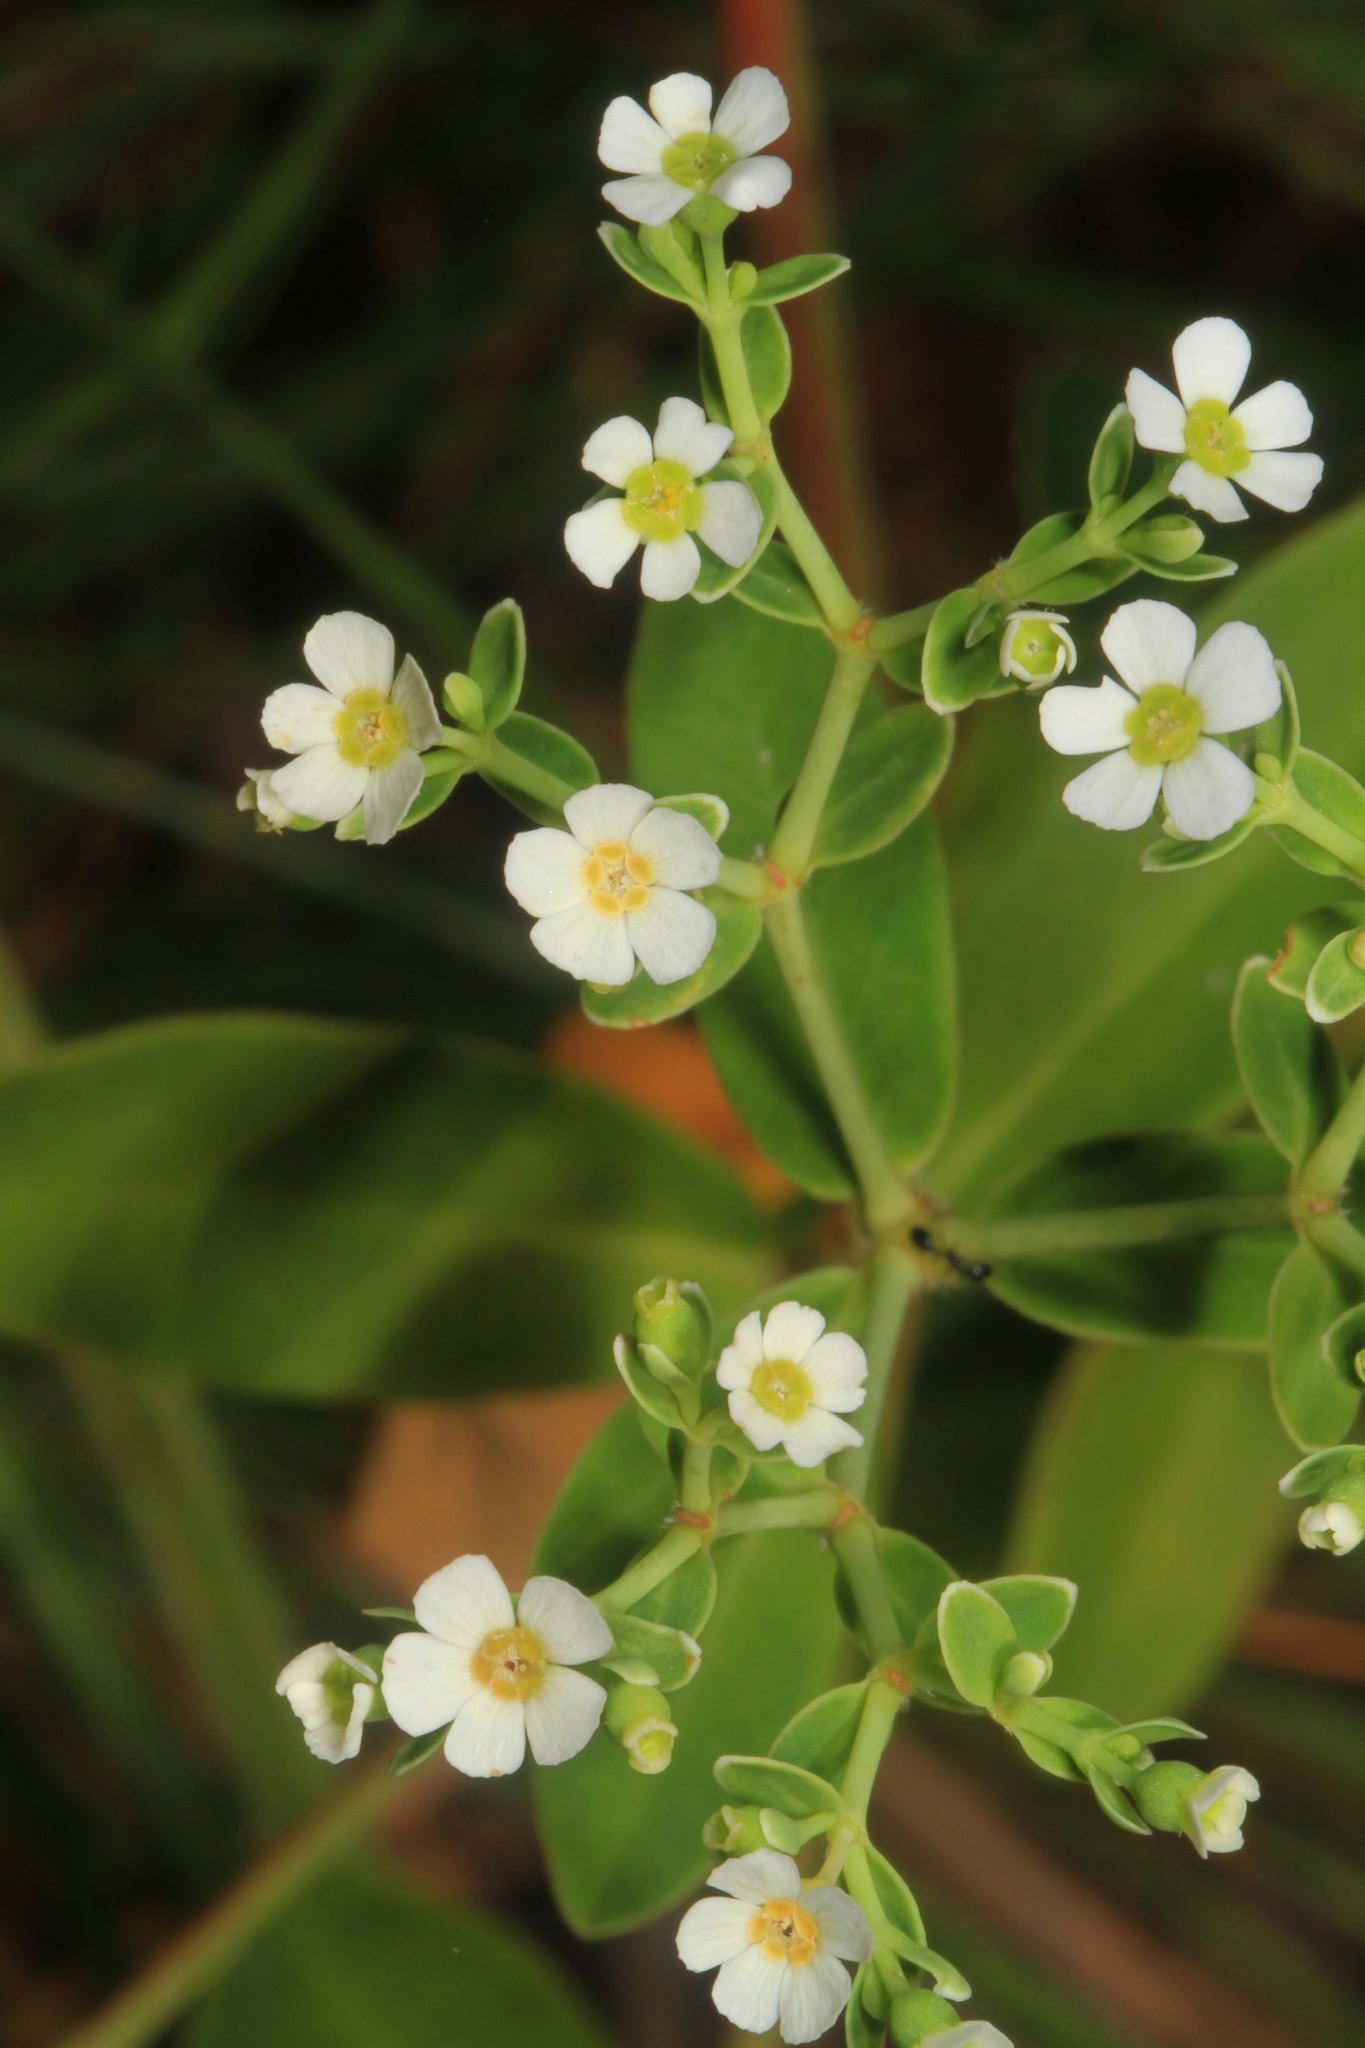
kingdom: Plantae
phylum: Tracheophyta
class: Magnoliopsida
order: Malpighiales
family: Euphorbiaceae
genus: Euphorbia
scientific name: Euphorbia corollata
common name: Flowering spurge
